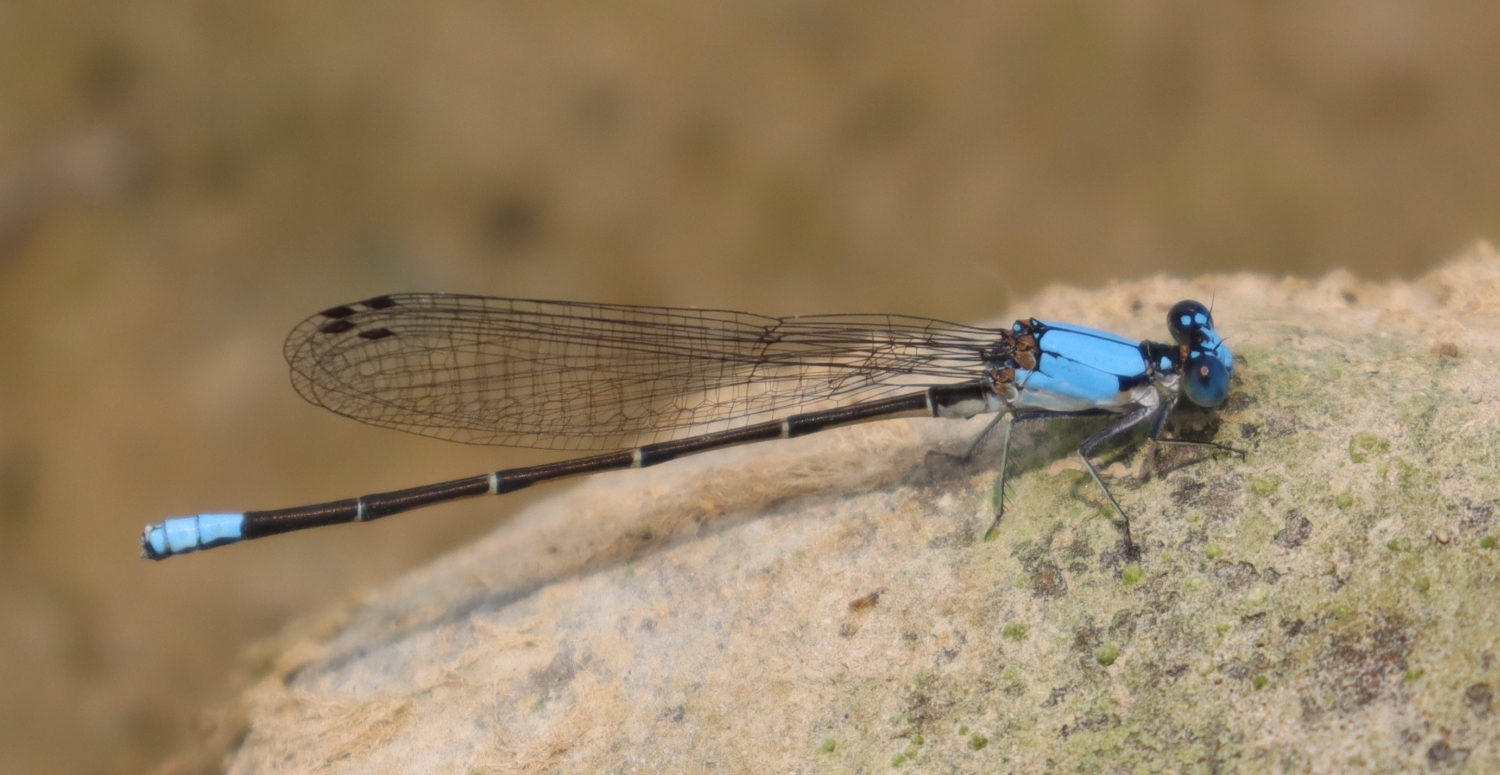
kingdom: Animalia
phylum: Arthropoda
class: Insecta
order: Odonata
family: Coenagrionidae
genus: Argia
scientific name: Argia apicalis
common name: Blue-fronted dancer
